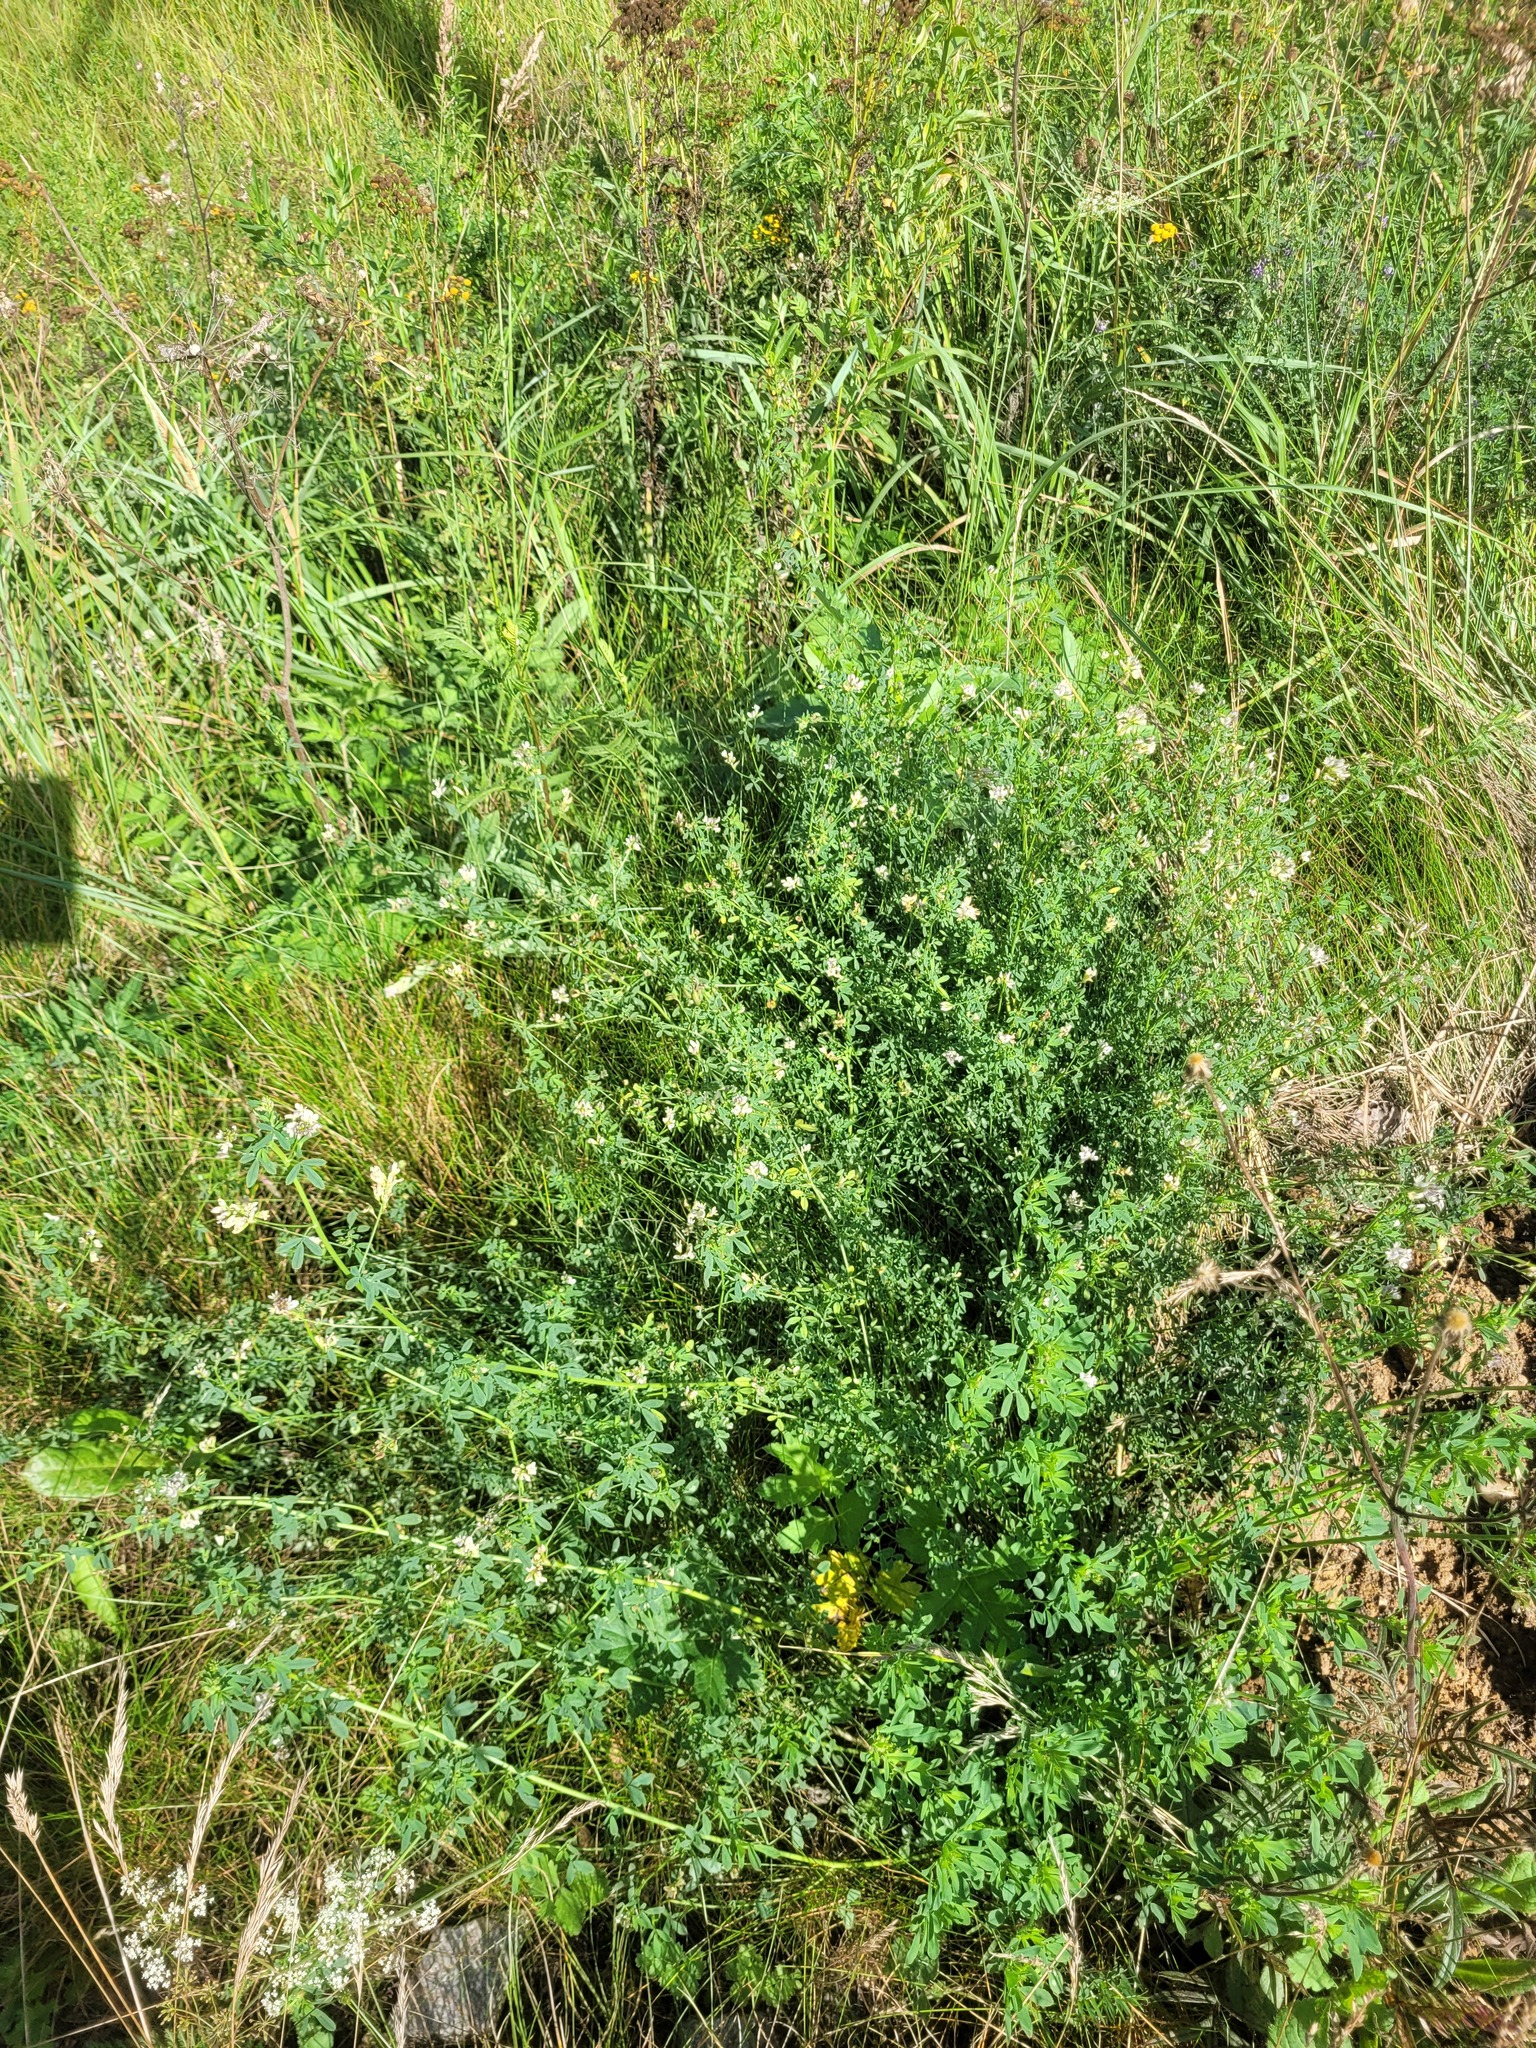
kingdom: Plantae
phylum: Tracheophyta
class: Magnoliopsida
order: Fabales
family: Fabaceae
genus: Medicago
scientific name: Medicago varia
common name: Sand lucerne
